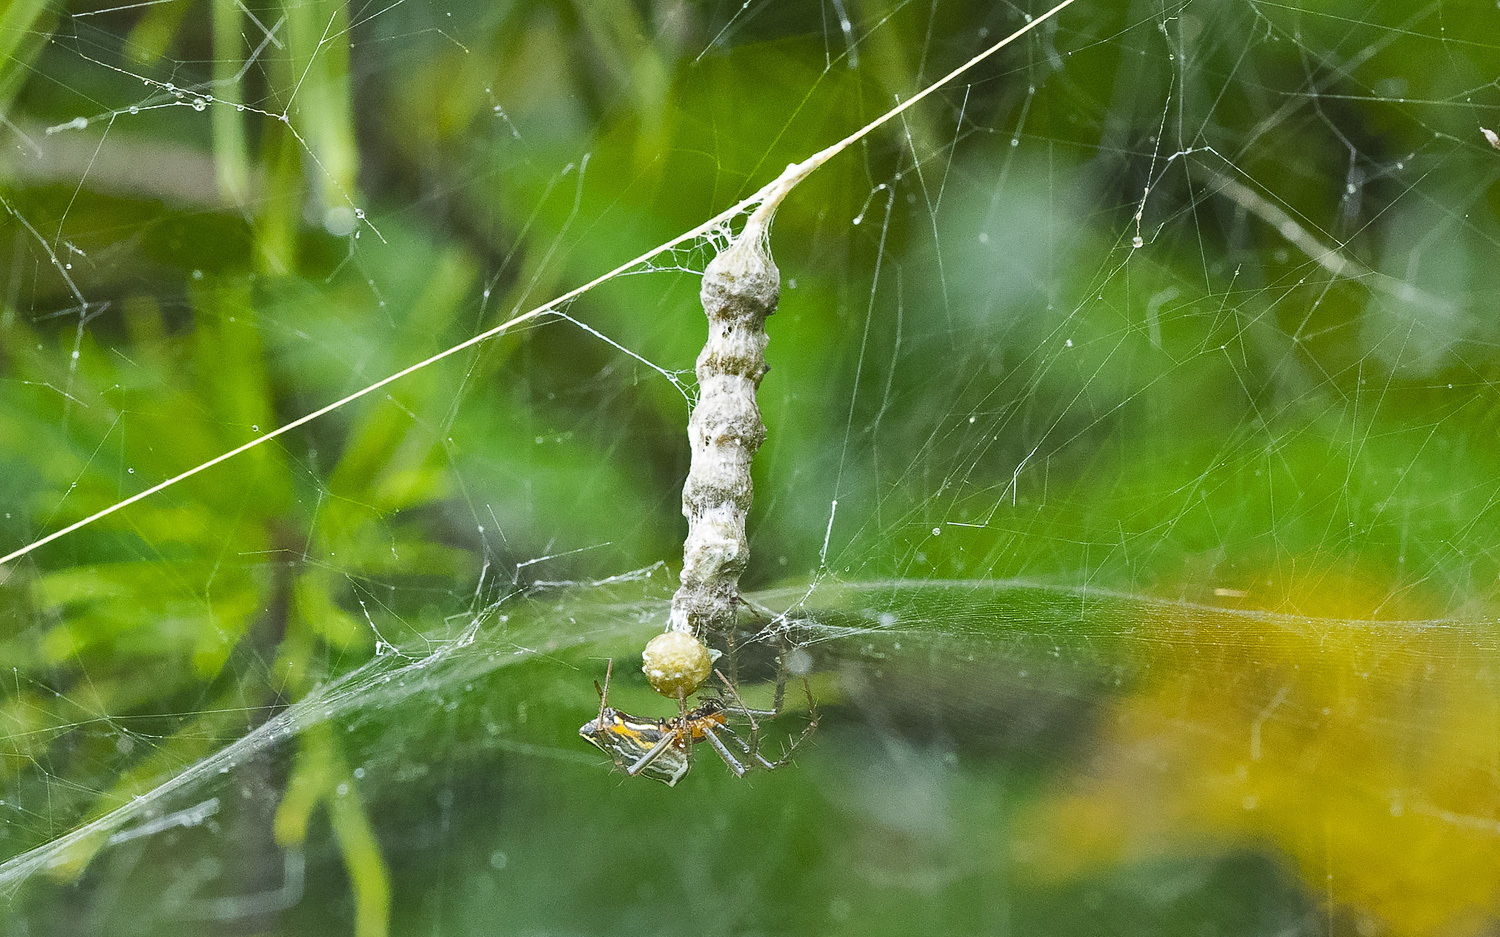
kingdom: Animalia
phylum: Arthropoda
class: Arachnida
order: Araneae
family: Araneidae
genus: Mecynogea
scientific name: Mecynogea lemniscata
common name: Orb weavers
